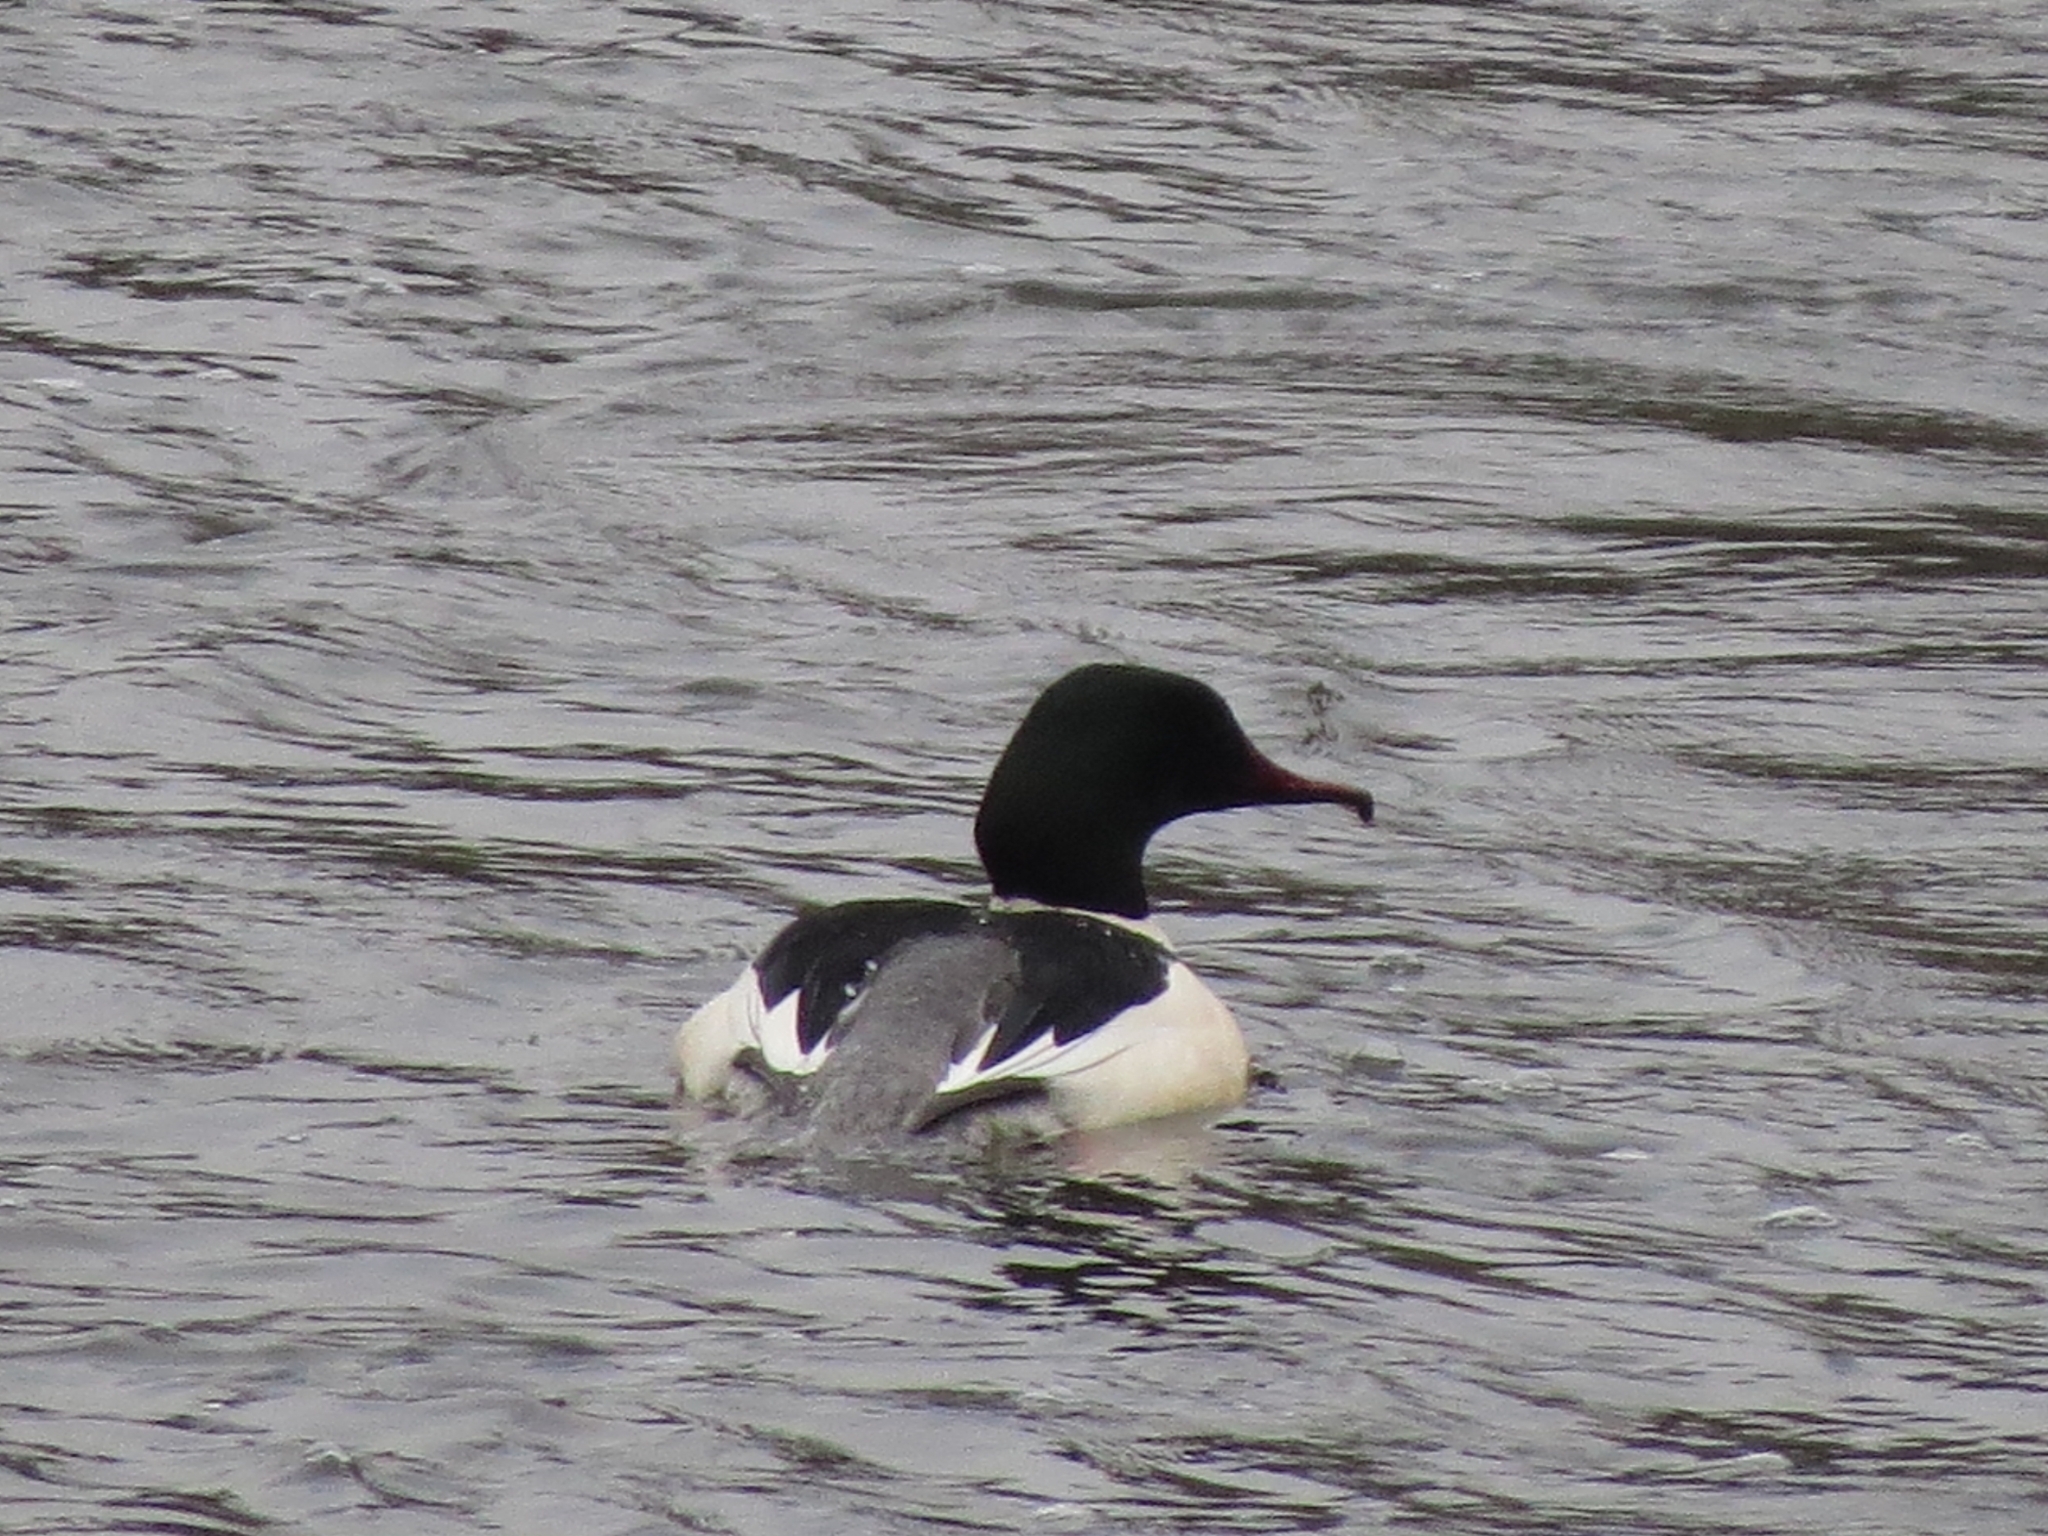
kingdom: Animalia
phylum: Chordata
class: Aves
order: Anseriformes
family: Anatidae
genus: Mergus
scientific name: Mergus merganser
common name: Common merganser
